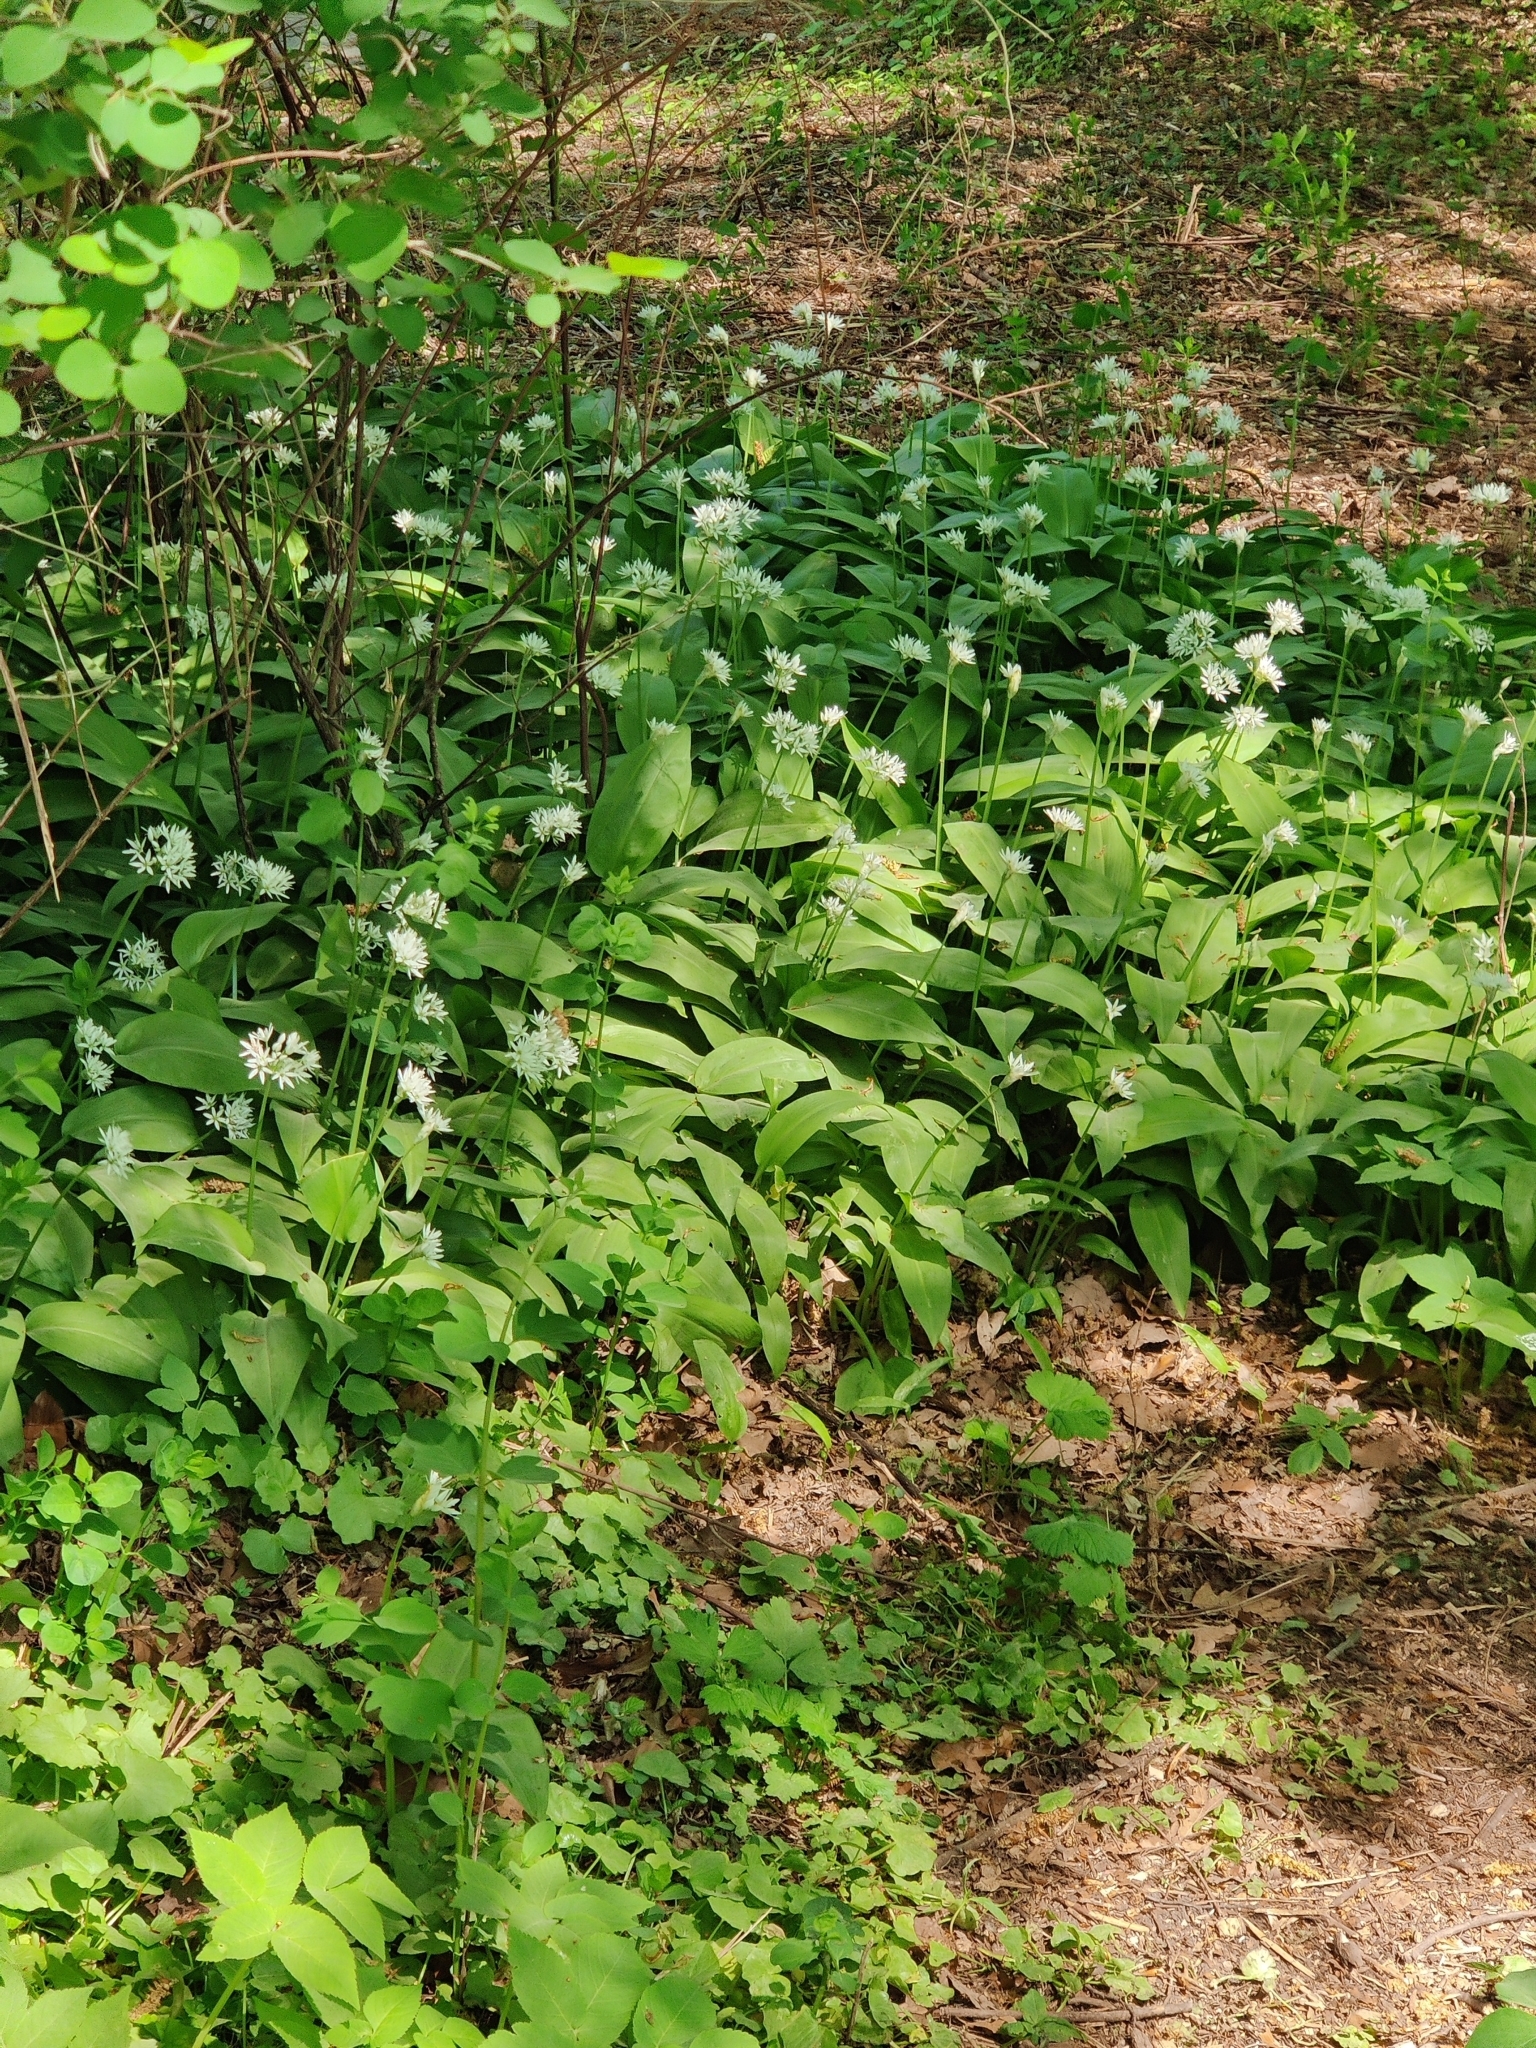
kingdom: Plantae
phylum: Tracheophyta
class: Liliopsida
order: Asparagales
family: Amaryllidaceae
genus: Allium
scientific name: Allium ursinum
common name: Ramsons
